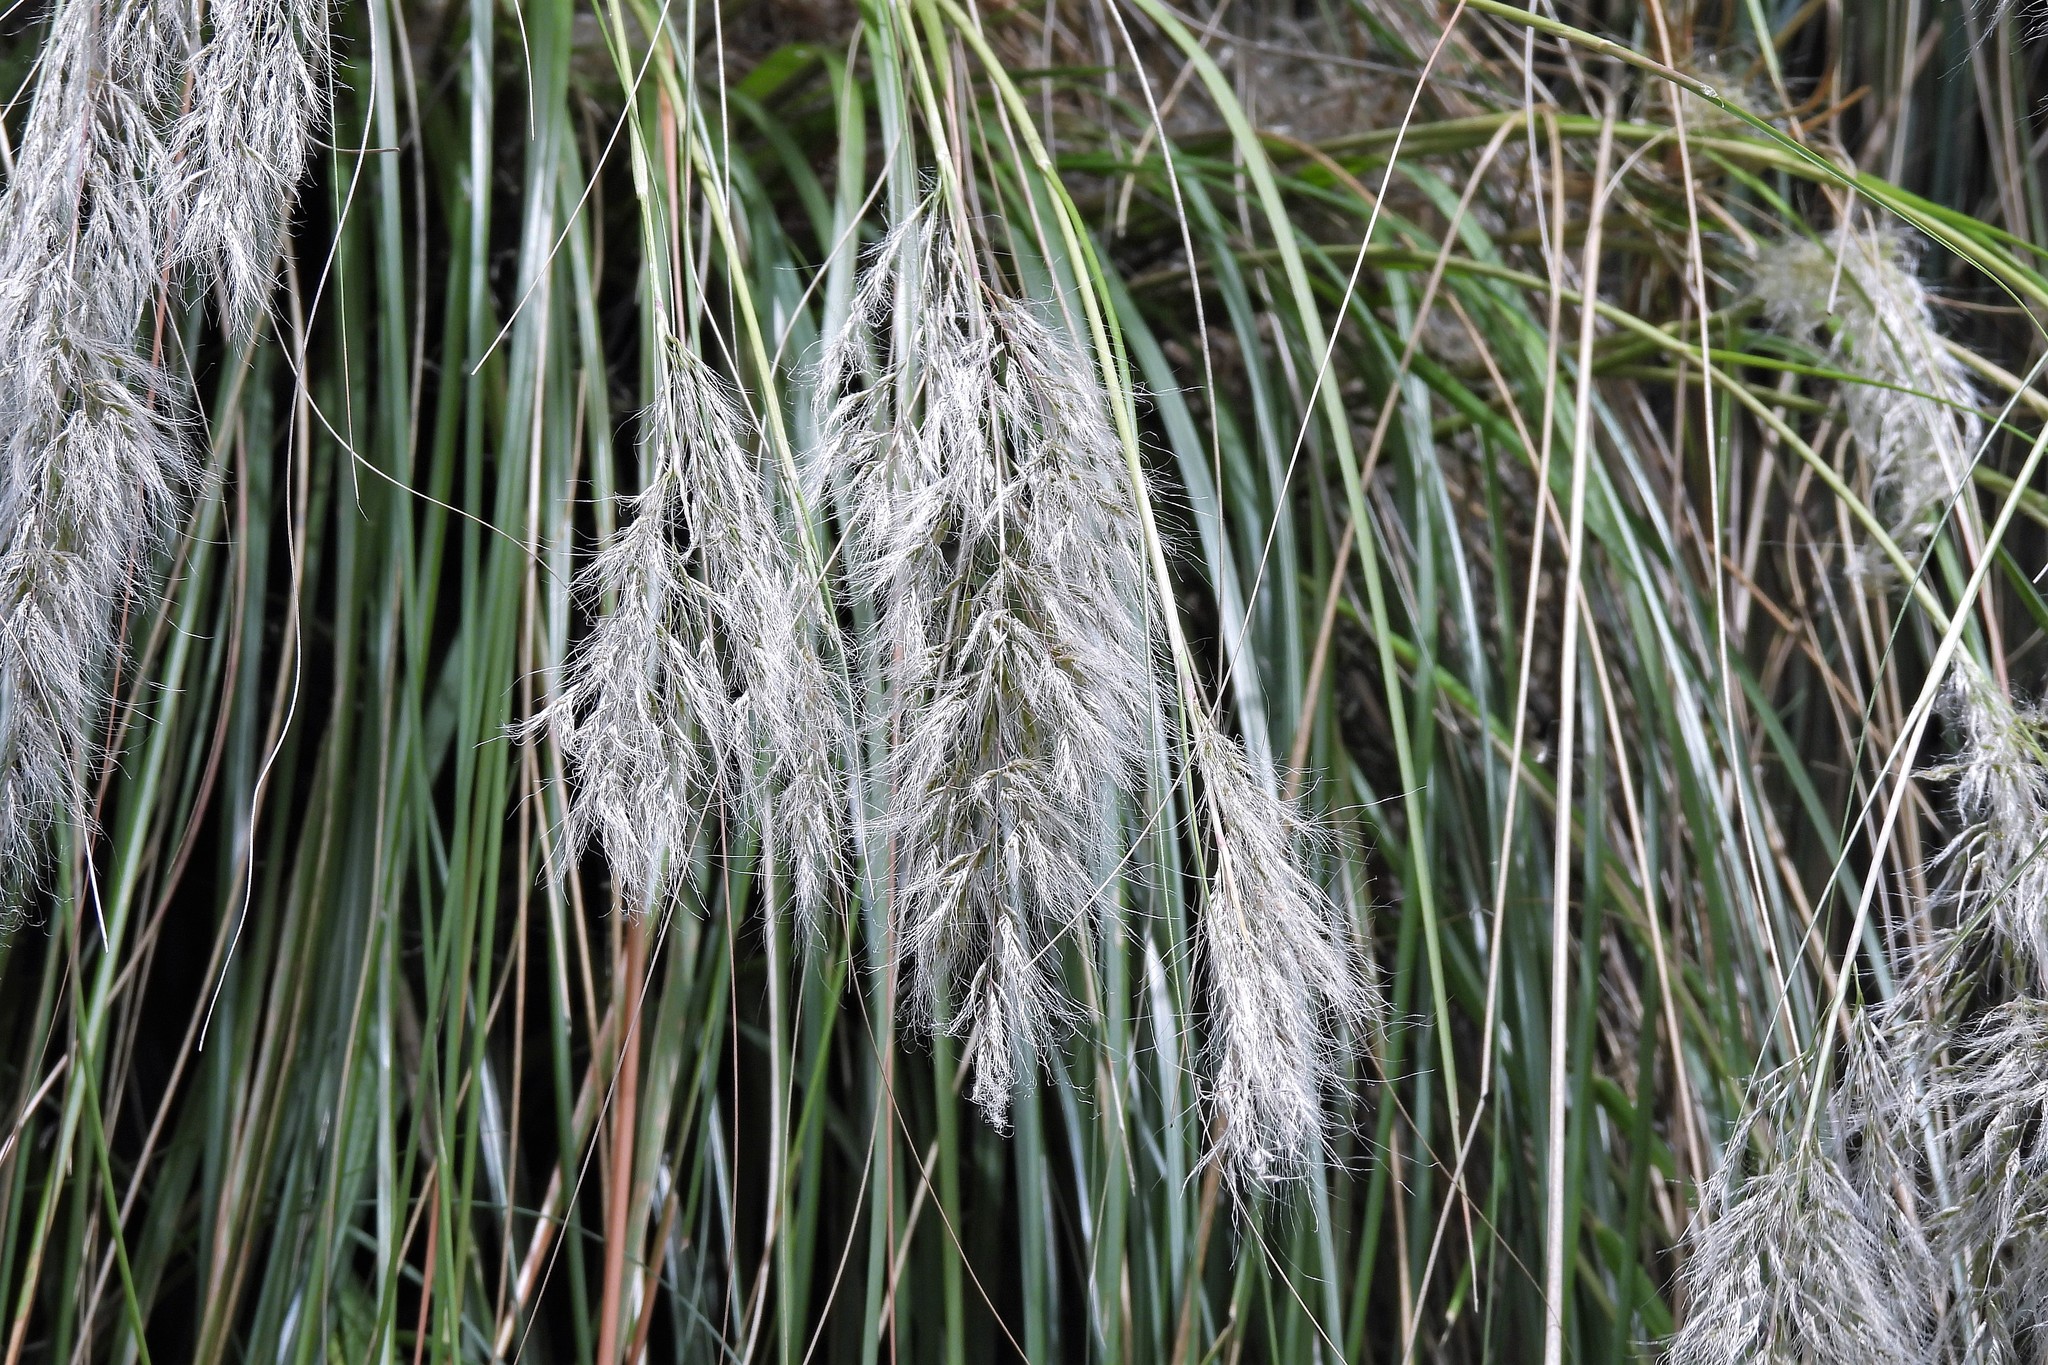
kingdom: Plantae
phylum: Tracheophyta
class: Liliopsida
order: Poales
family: Poaceae
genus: Cortaderia
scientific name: Cortaderia hieronymi
